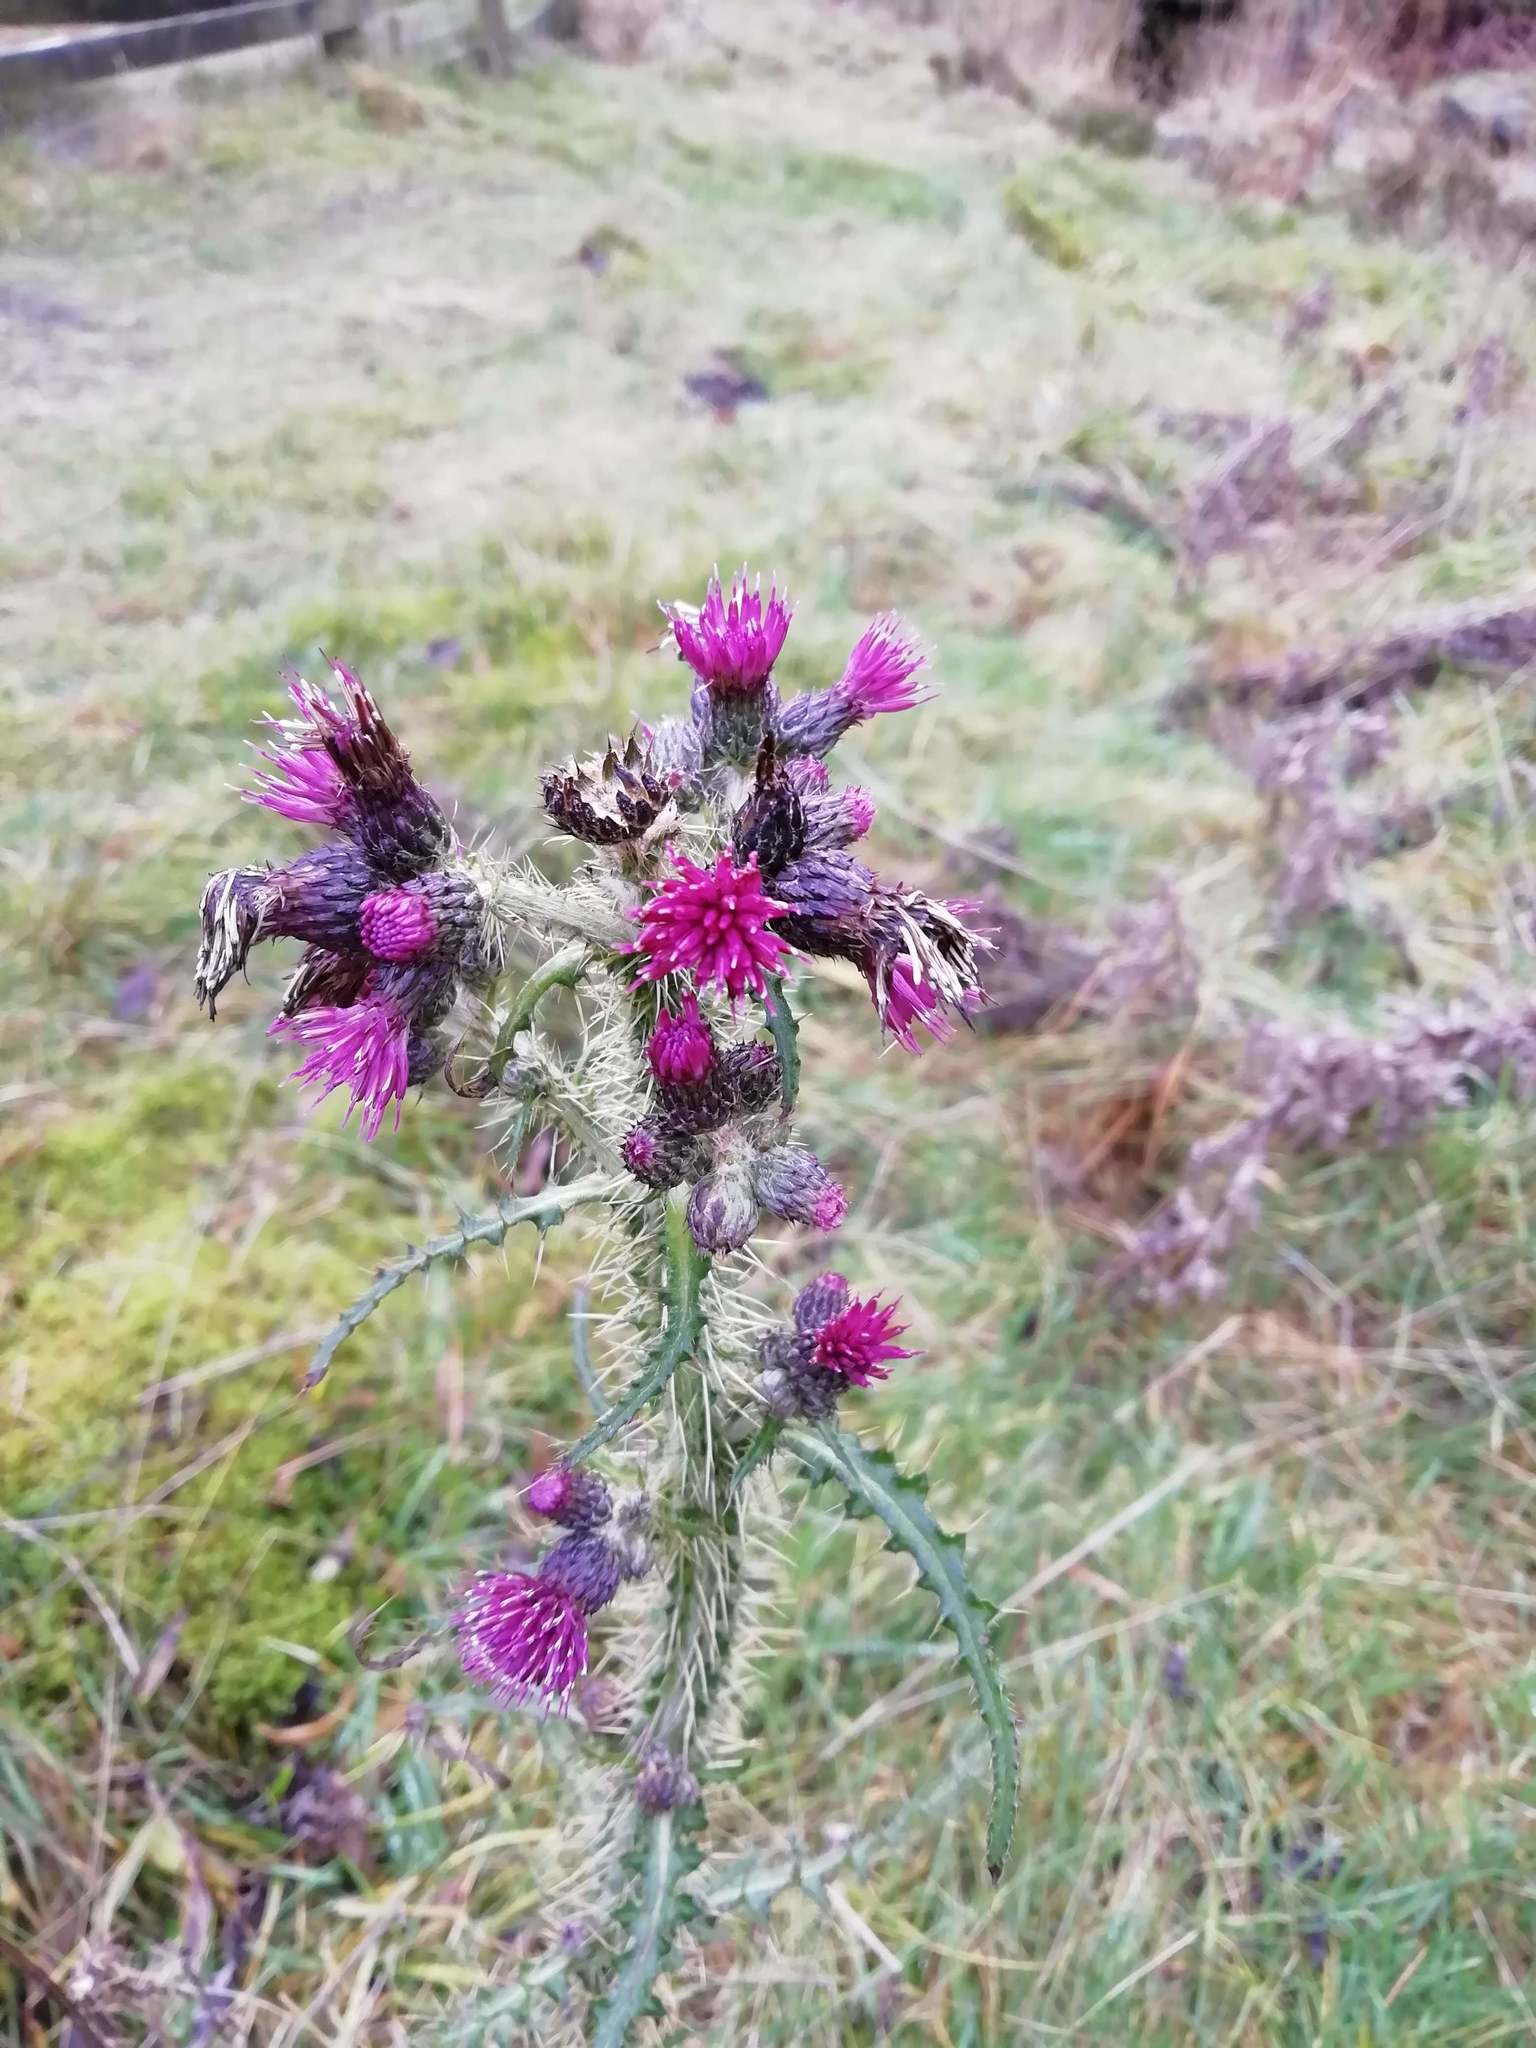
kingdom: Plantae
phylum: Tracheophyta
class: Magnoliopsida
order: Asterales
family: Asteraceae
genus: Cirsium
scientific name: Cirsium palustre
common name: Marsh thistle
